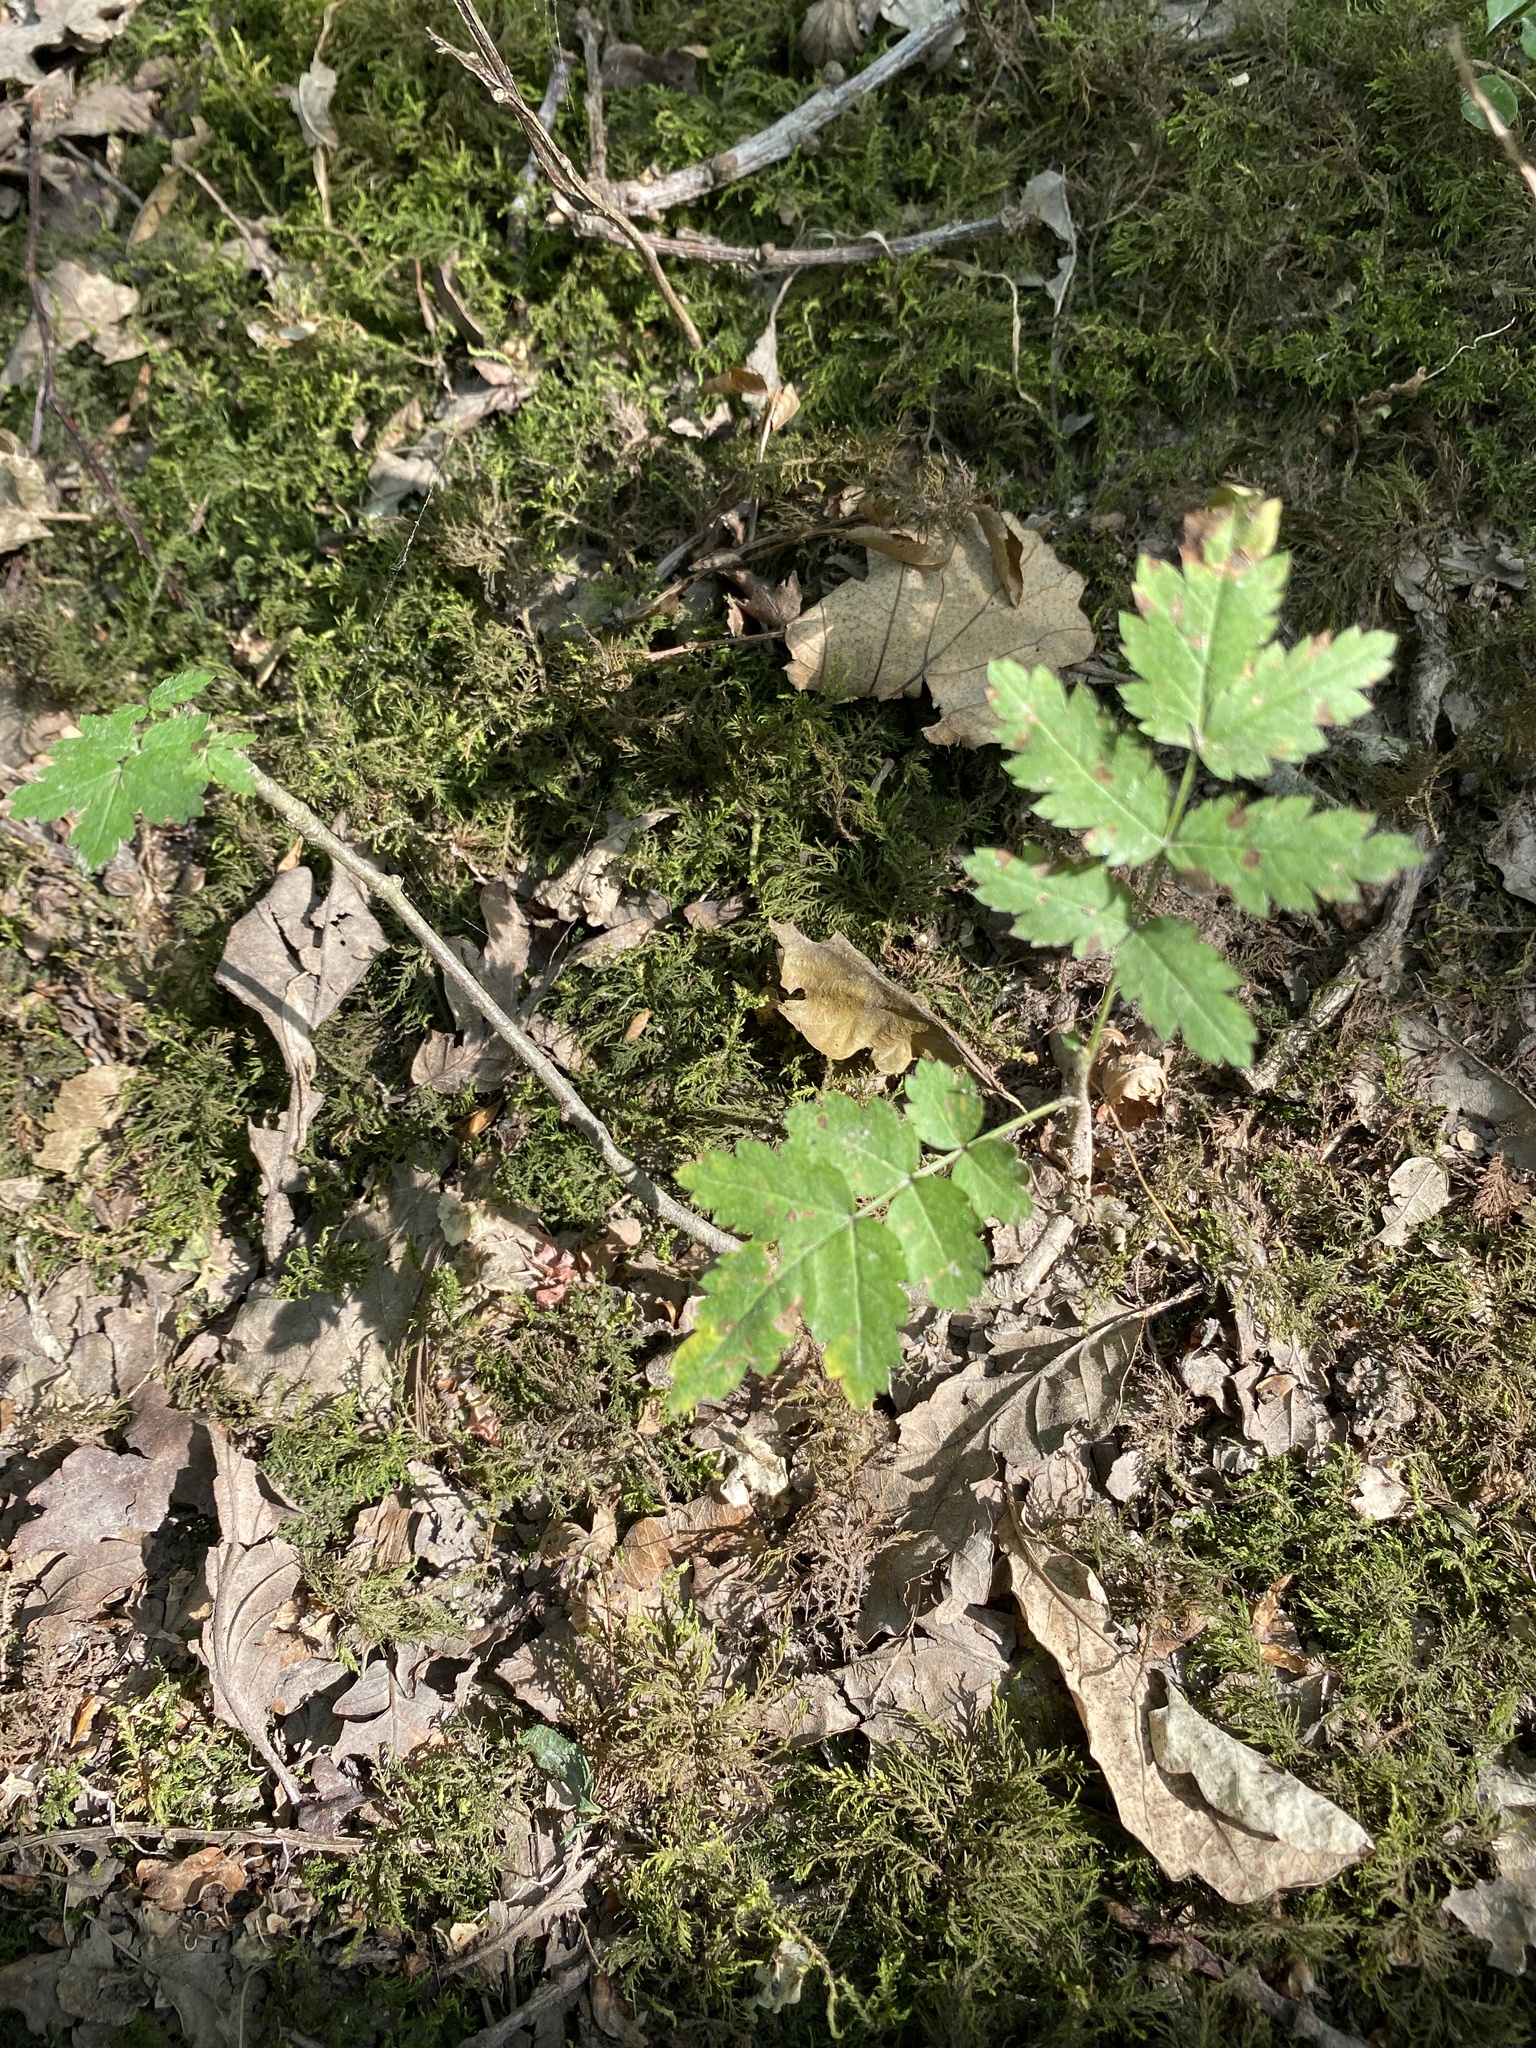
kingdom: Plantae
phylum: Tracheophyta
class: Magnoliopsida
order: Rosales
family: Rosaceae
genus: Sorbus
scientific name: Sorbus aucuparia
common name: Rowan
